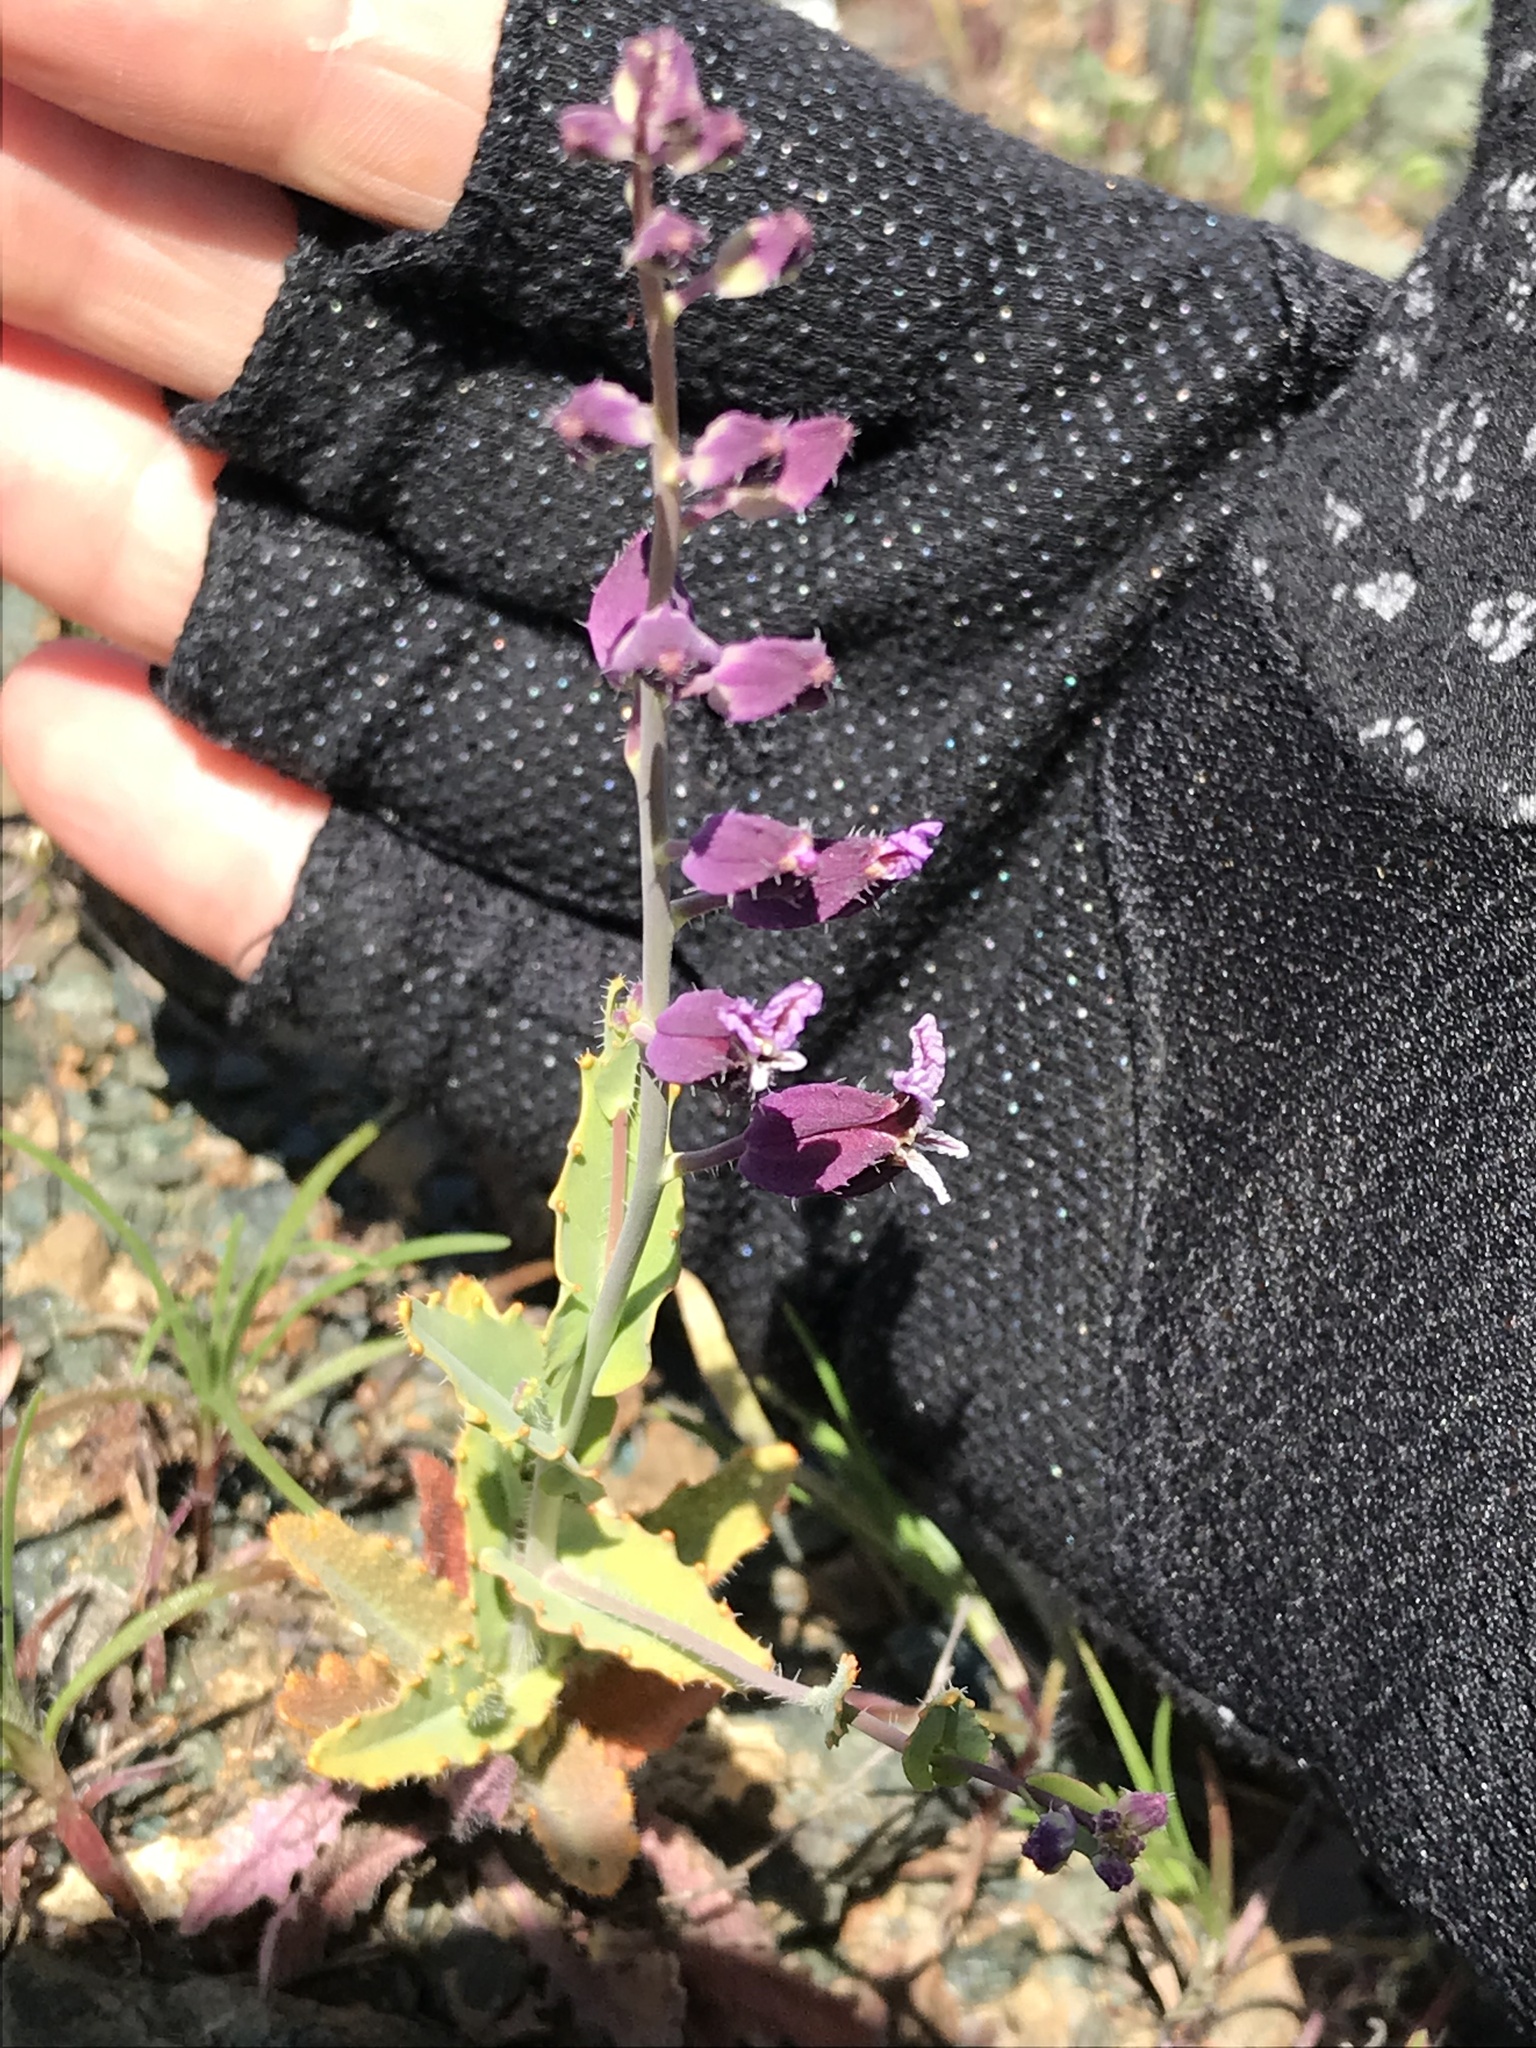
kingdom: Plantae
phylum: Tracheophyta
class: Magnoliopsida
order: Brassicales
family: Brassicaceae
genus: Streptanthus
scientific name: Streptanthus glandulosus
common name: Jewel-flower
